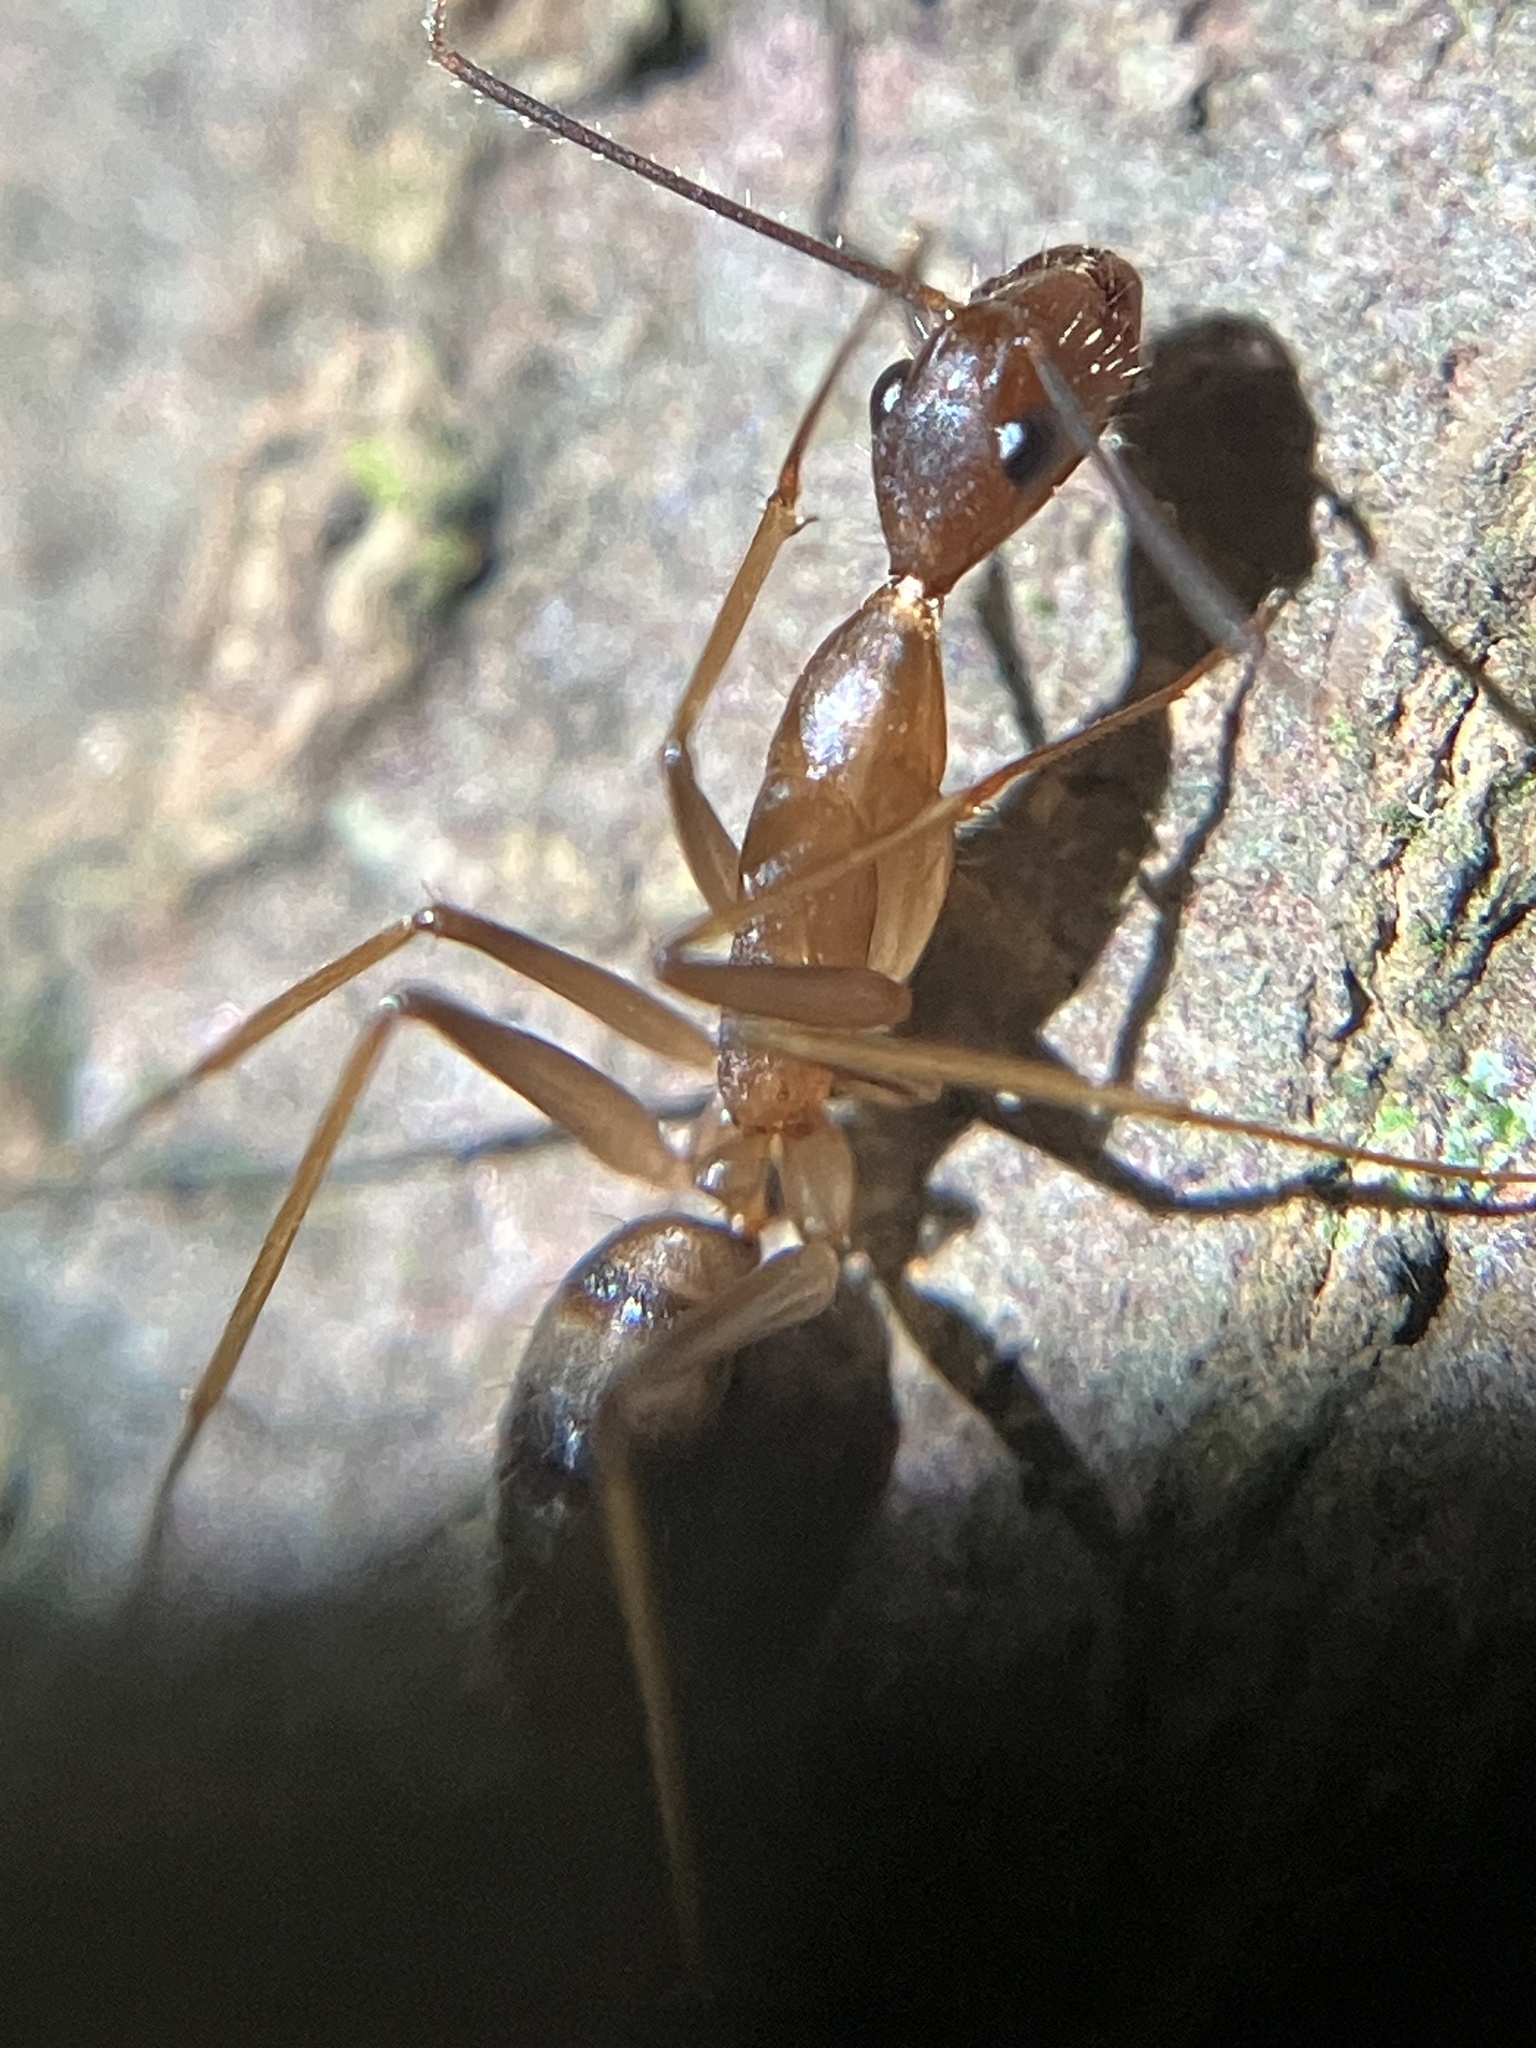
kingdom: Animalia
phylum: Arthropoda
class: Insecta
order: Hymenoptera
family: Formicidae
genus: Camponotus
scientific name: Camponotus simoni
